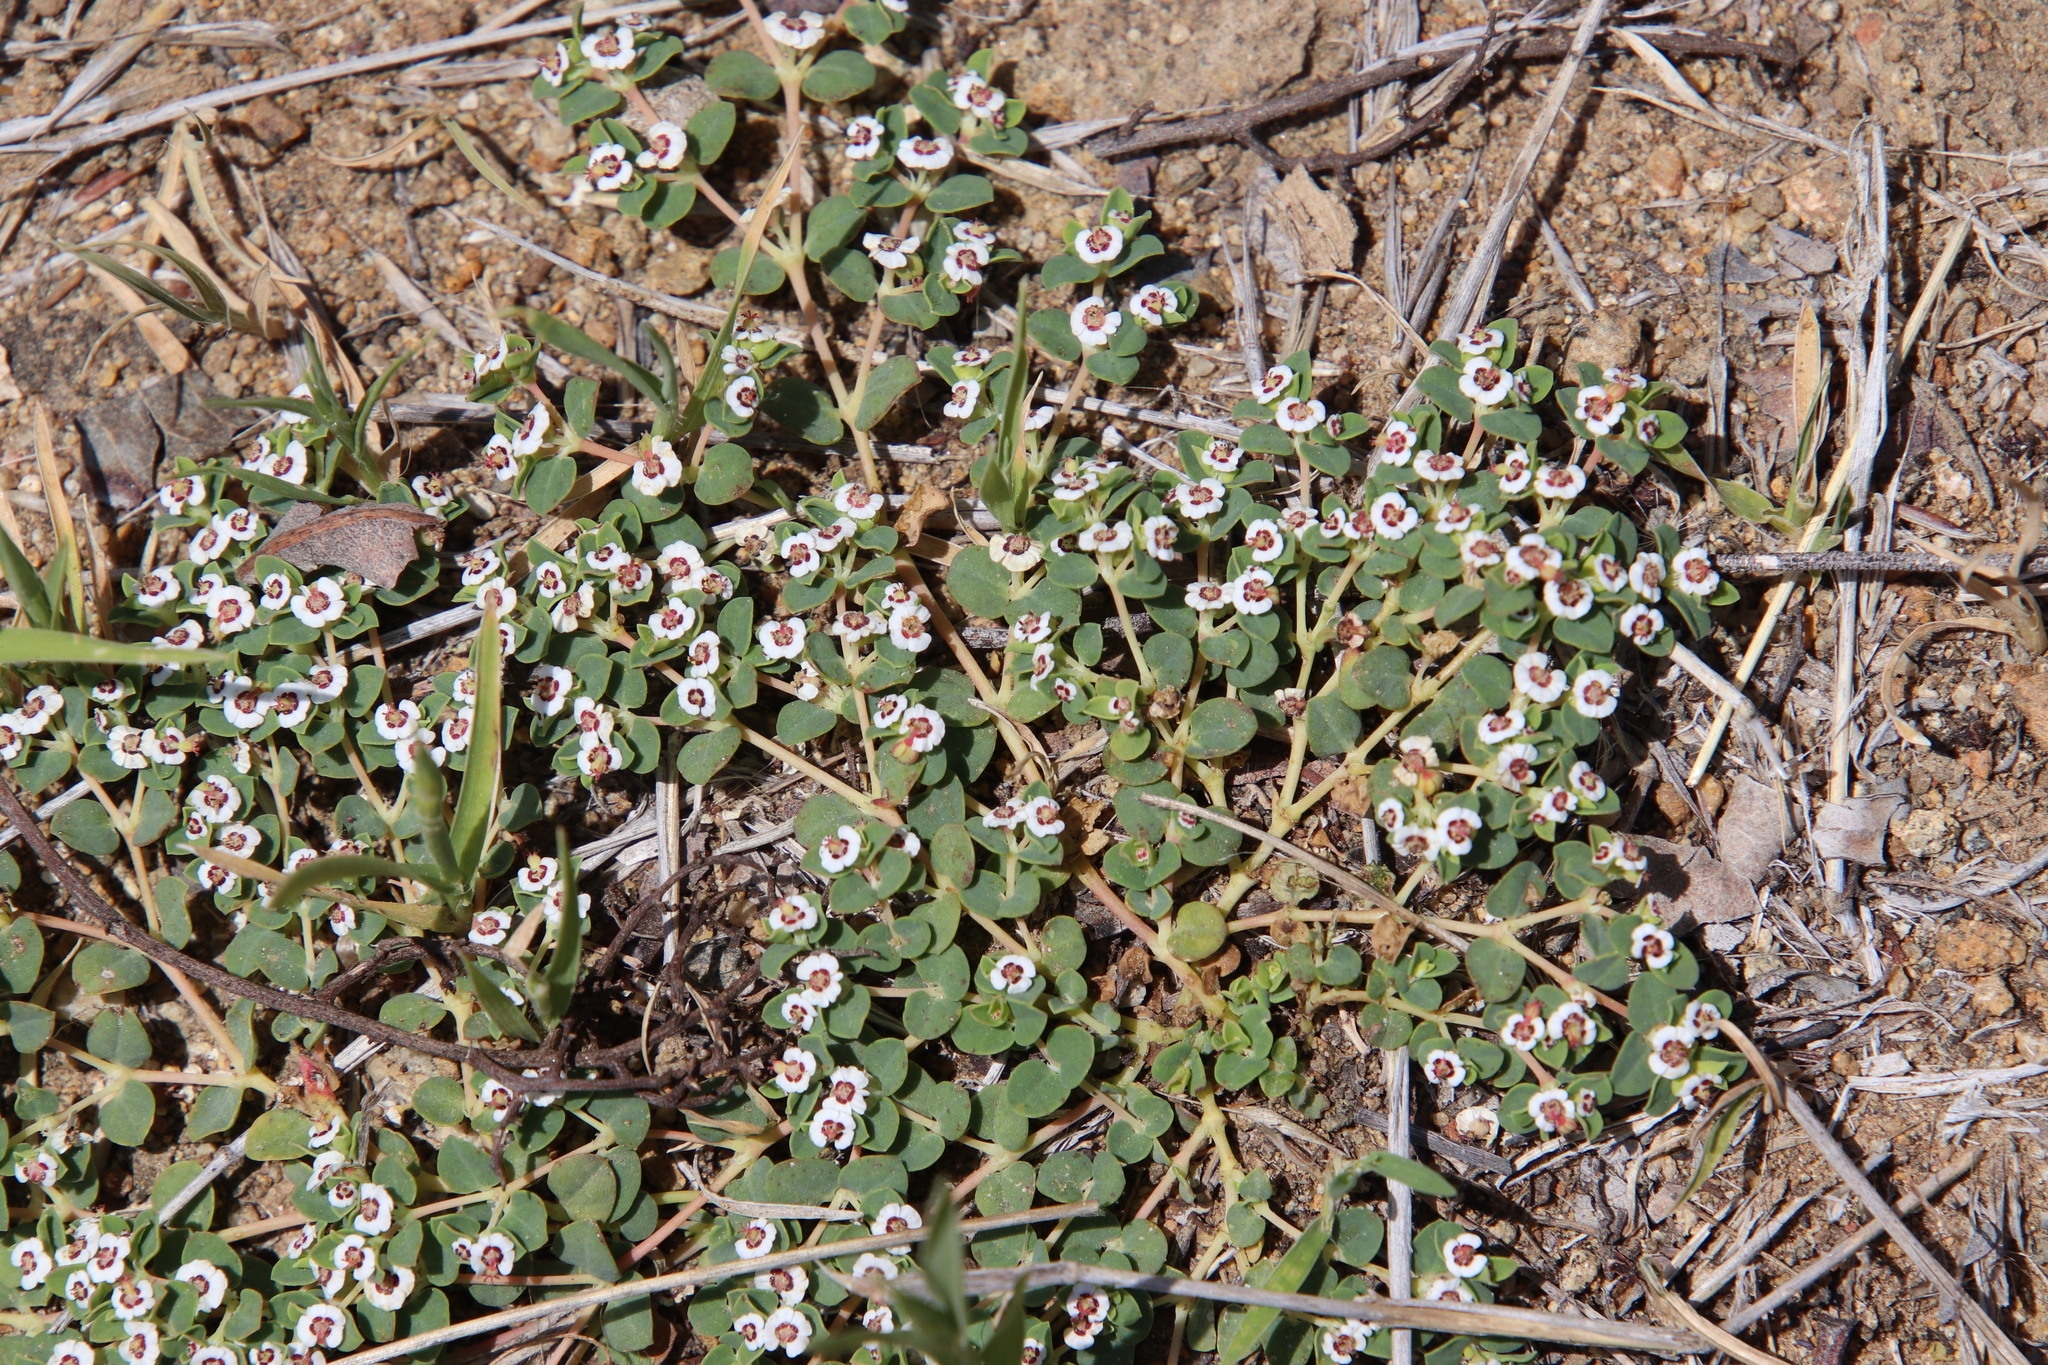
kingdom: Plantae
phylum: Tracheophyta
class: Magnoliopsida
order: Malpighiales
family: Euphorbiaceae
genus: Euphorbia
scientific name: Euphorbia polycarpa
